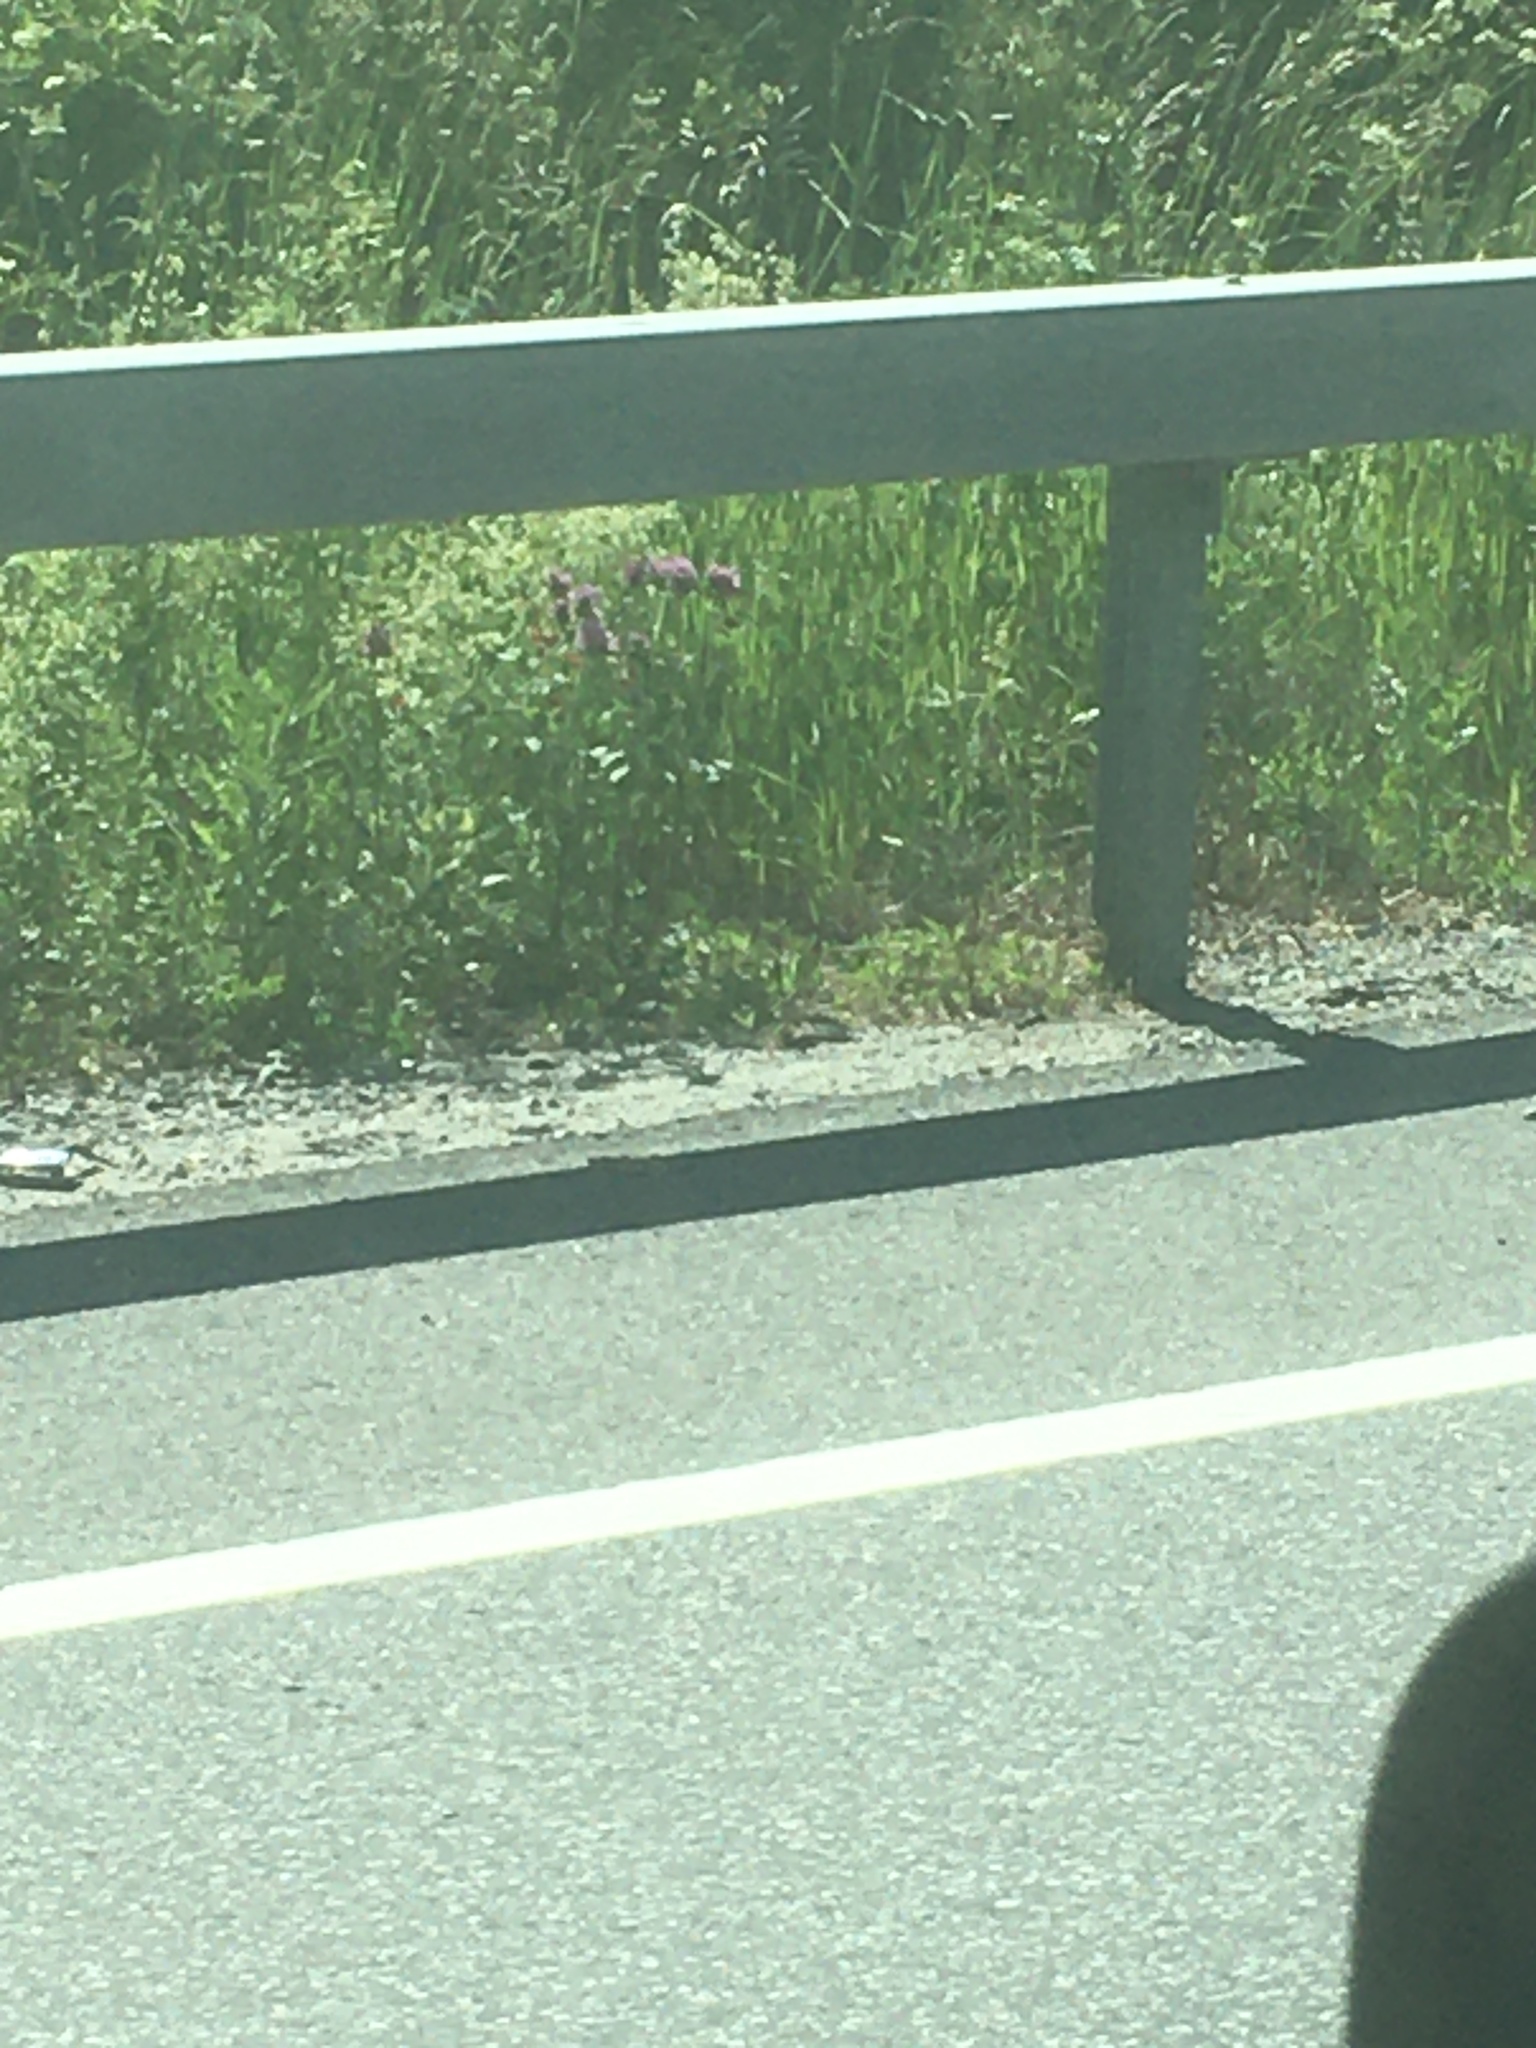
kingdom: Plantae
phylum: Tracheophyta
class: Magnoliopsida
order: Fabales
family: Fabaceae
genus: Trifolium
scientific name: Trifolium pratense
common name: Red clover
